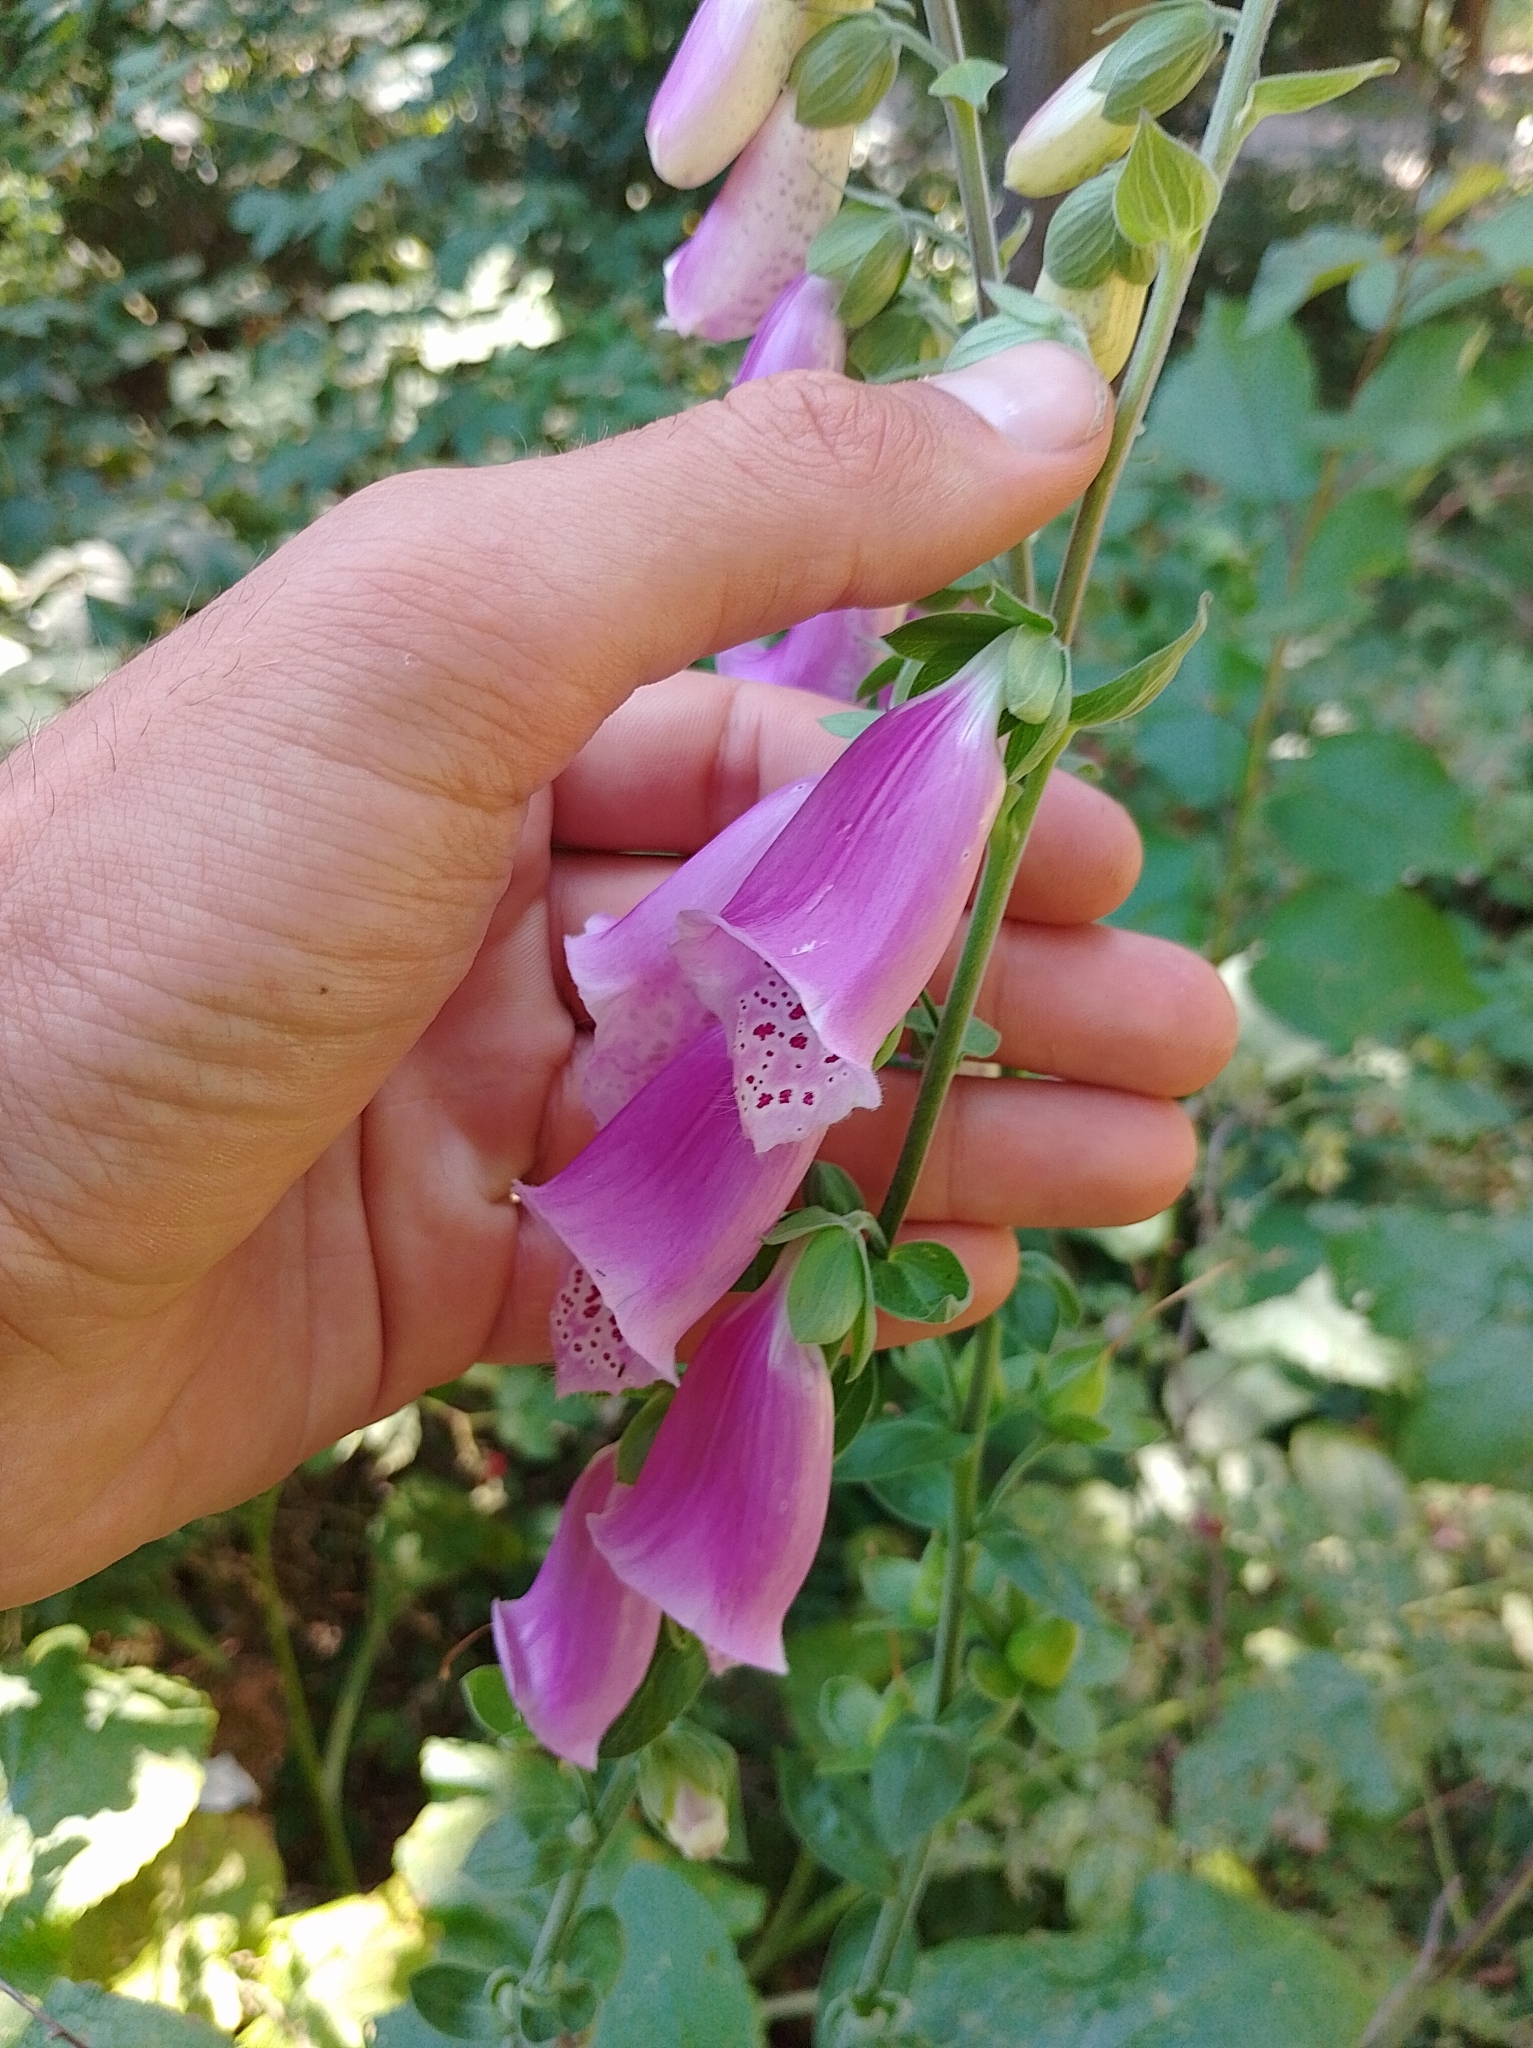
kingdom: Plantae
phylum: Tracheophyta
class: Magnoliopsida
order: Lamiales
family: Plantaginaceae
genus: Digitalis
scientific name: Digitalis purpurea
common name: Foxglove
